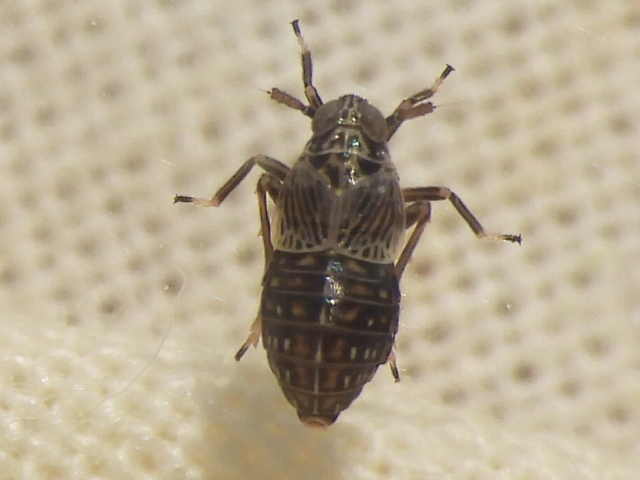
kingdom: Animalia
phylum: Arthropoda
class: Insecta
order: Hemiptera
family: Delphacidae
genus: Pissonotus
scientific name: Pissonotus albovenosus
